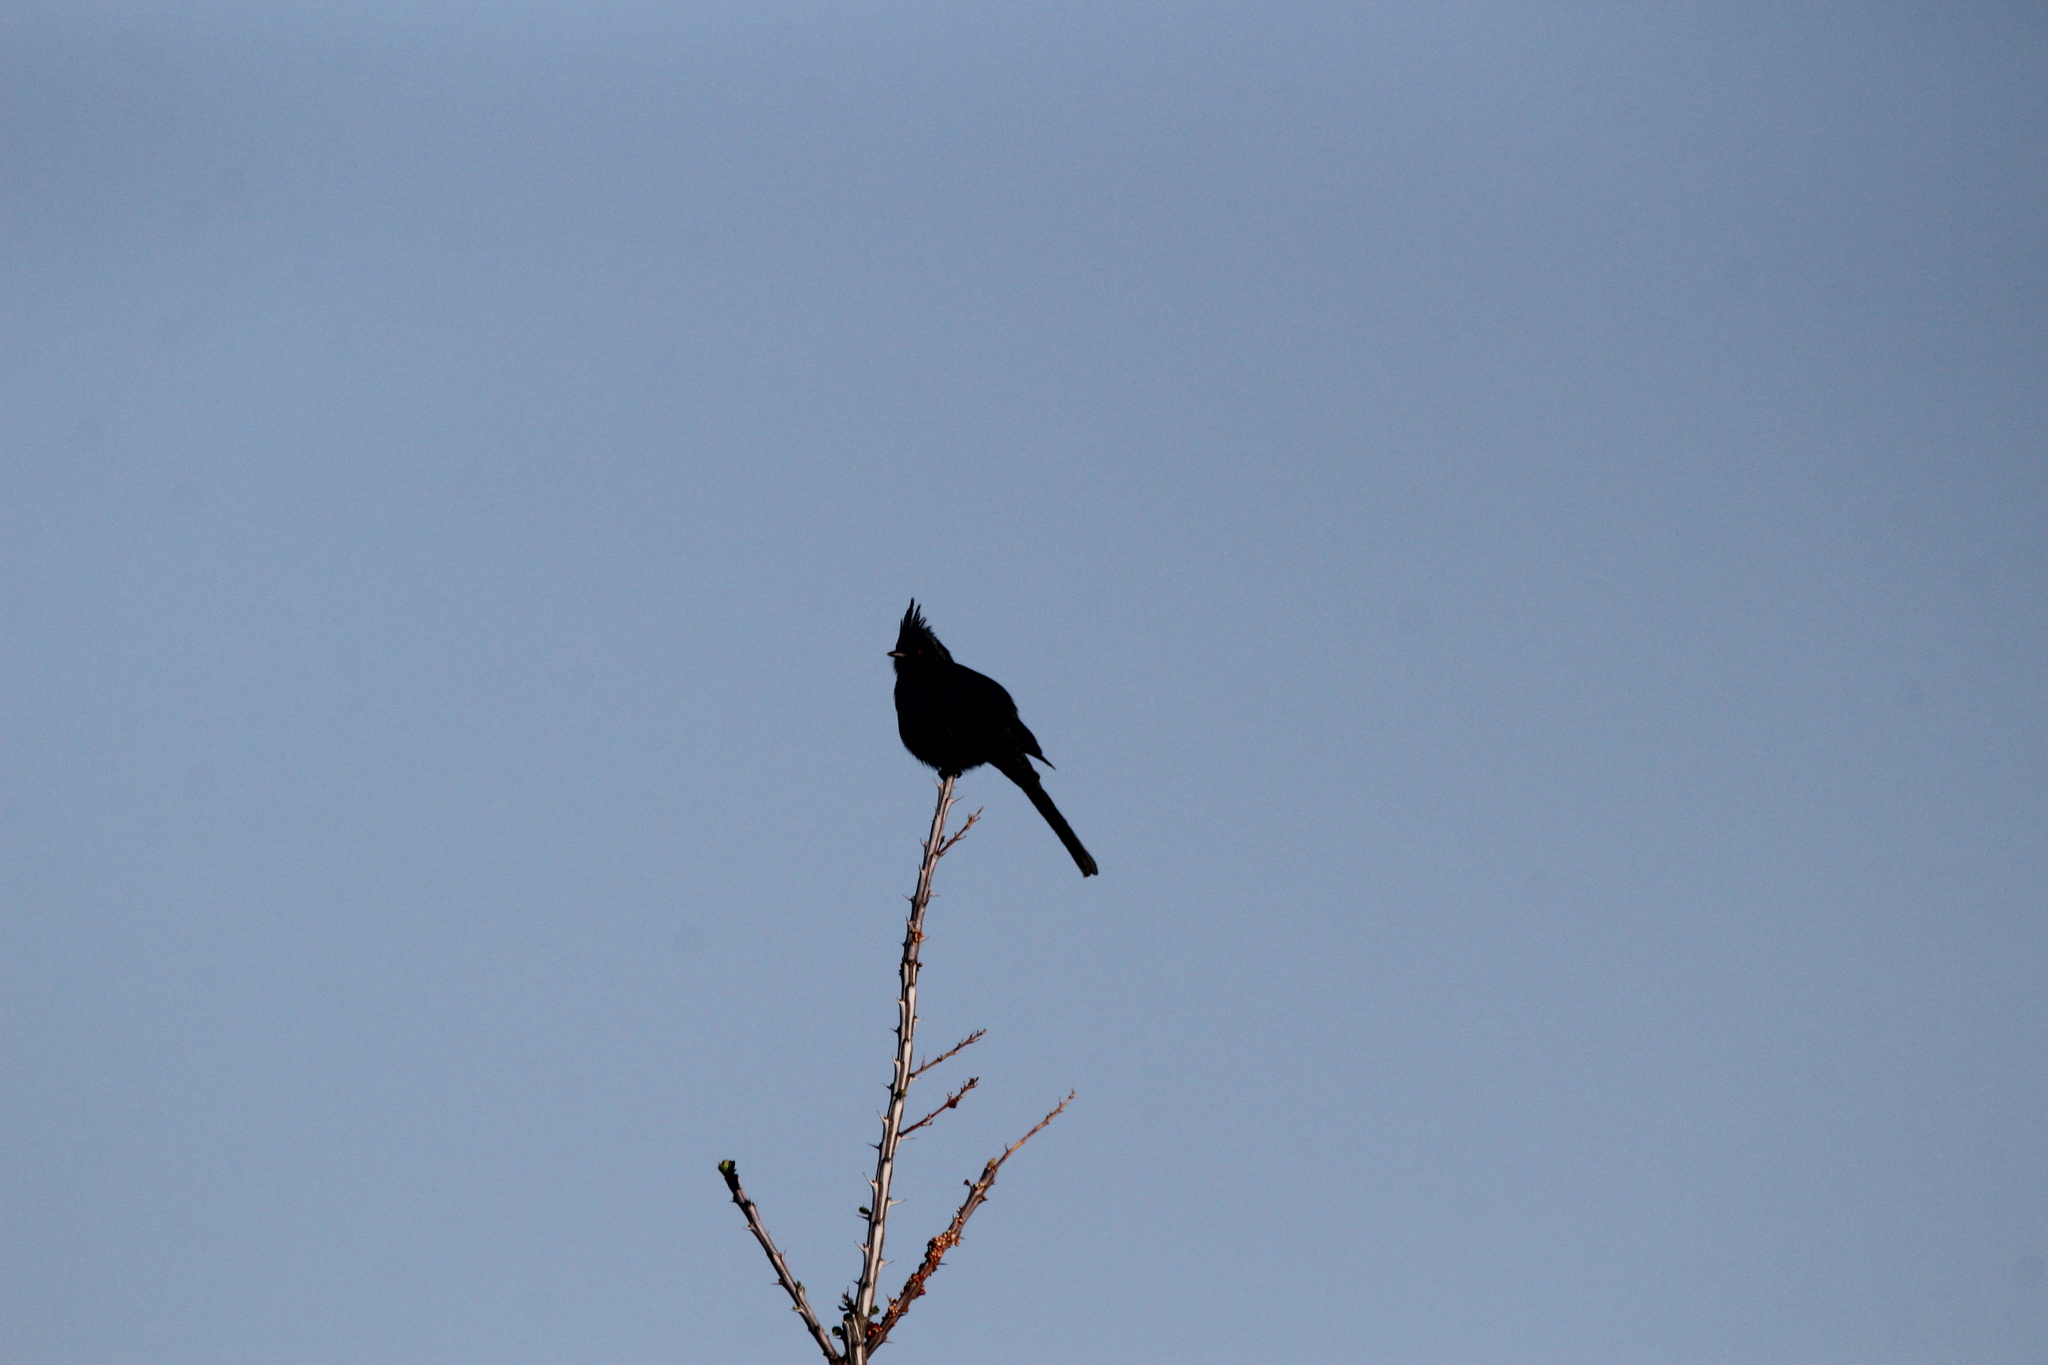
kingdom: Animalia
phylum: Chordata
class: Aves
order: Passeriformes
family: Ptilogonatidae
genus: Phainopepla
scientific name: Phainopepla nitens
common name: Phainopepla
